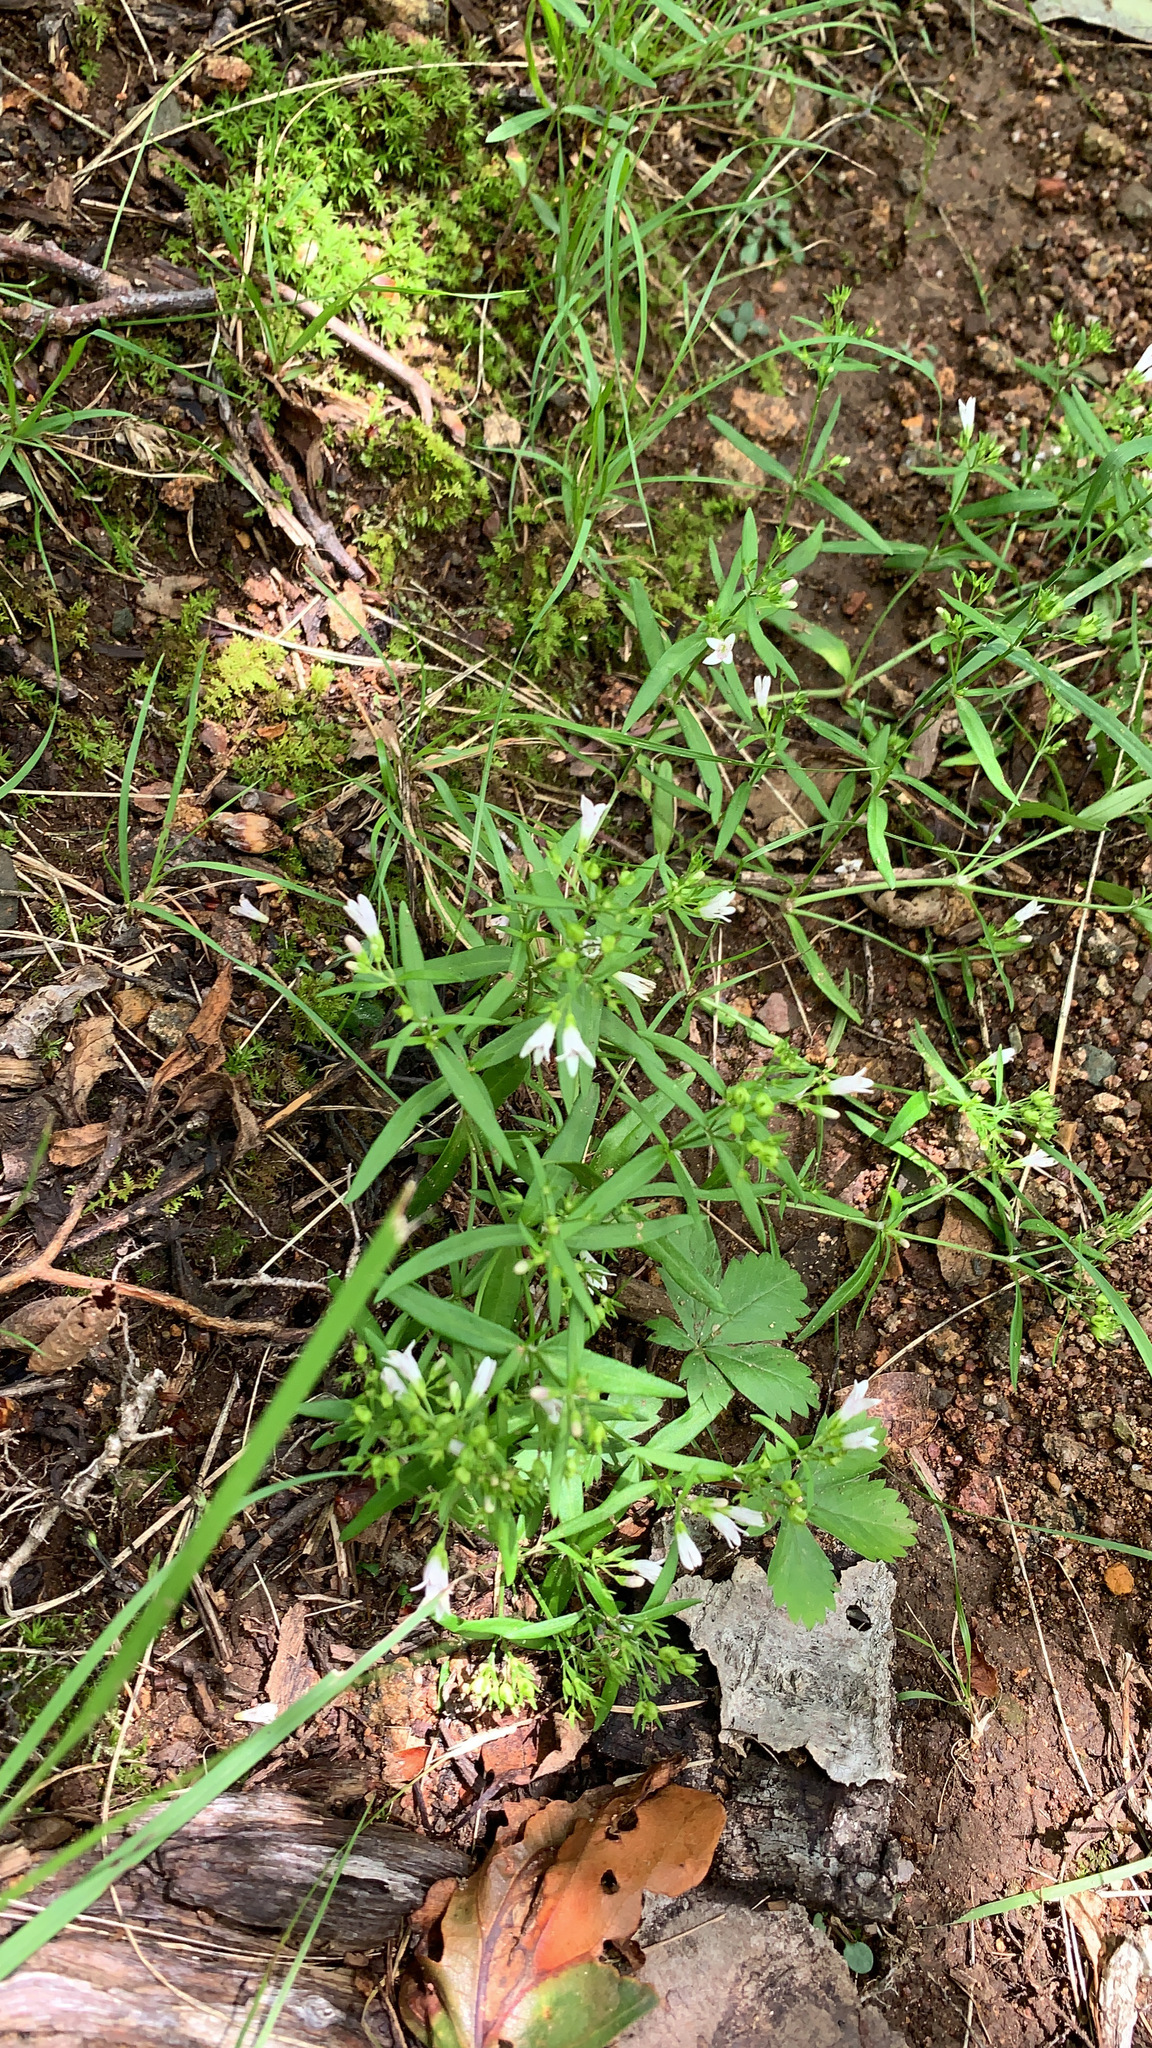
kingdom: Plantae
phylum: Tracheophyta
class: Magnoliopsida
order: Gentianales
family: Rubiaceae
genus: Houstonia
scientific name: Houstonia longifolia
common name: Long-leaved bluets
